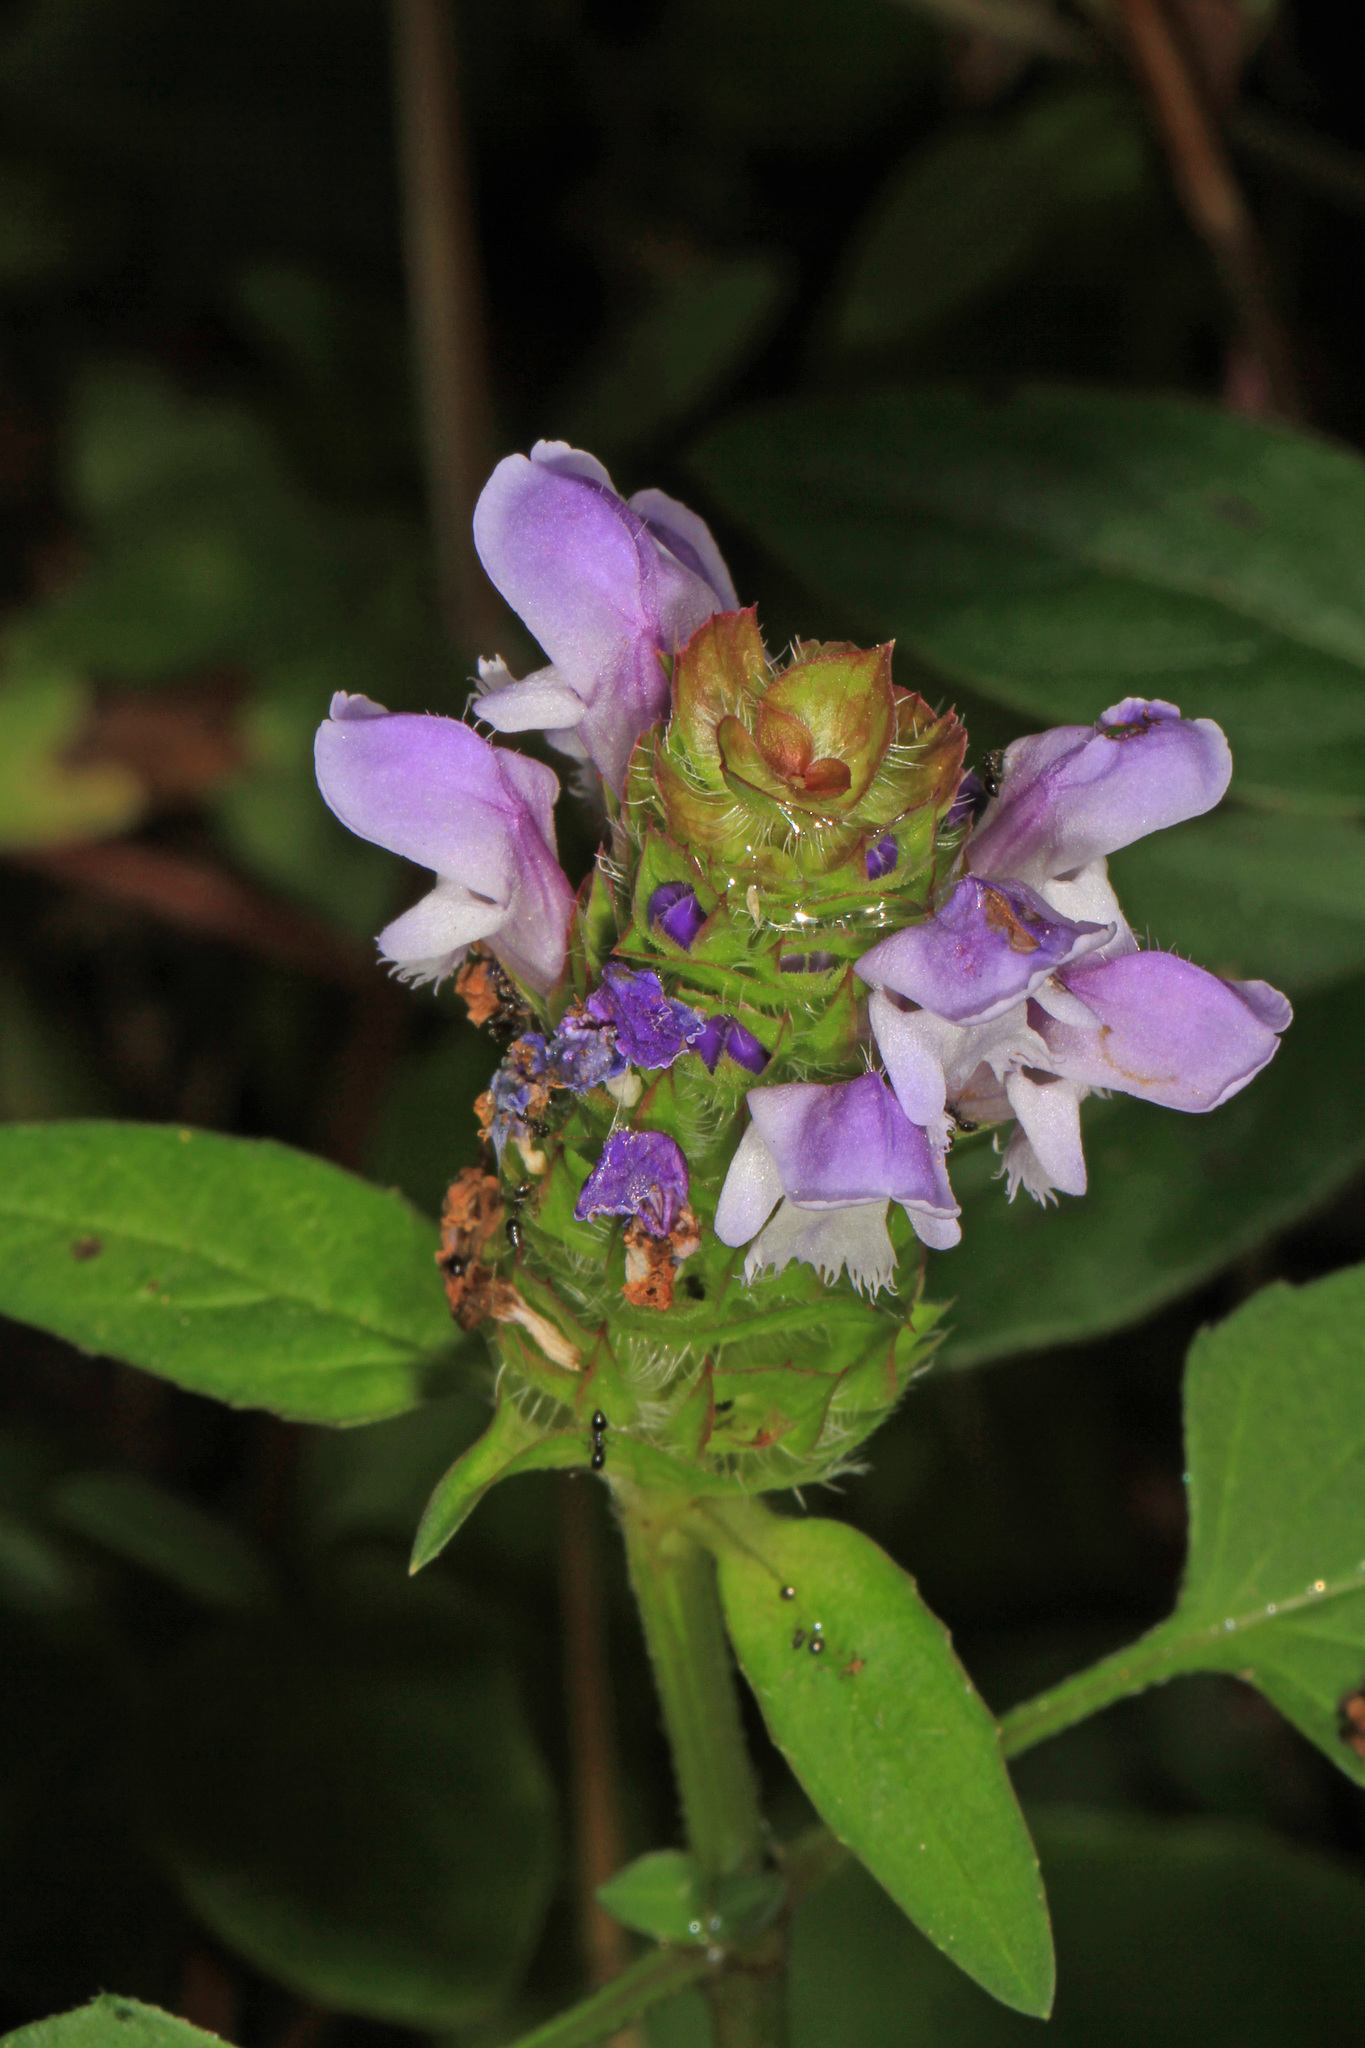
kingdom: Plantae
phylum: Tracheophyta
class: Magnoliopsida
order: Lamiales
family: Lamiaceae
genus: Prunella
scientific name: Prunella vulgaris
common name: Heal-all
